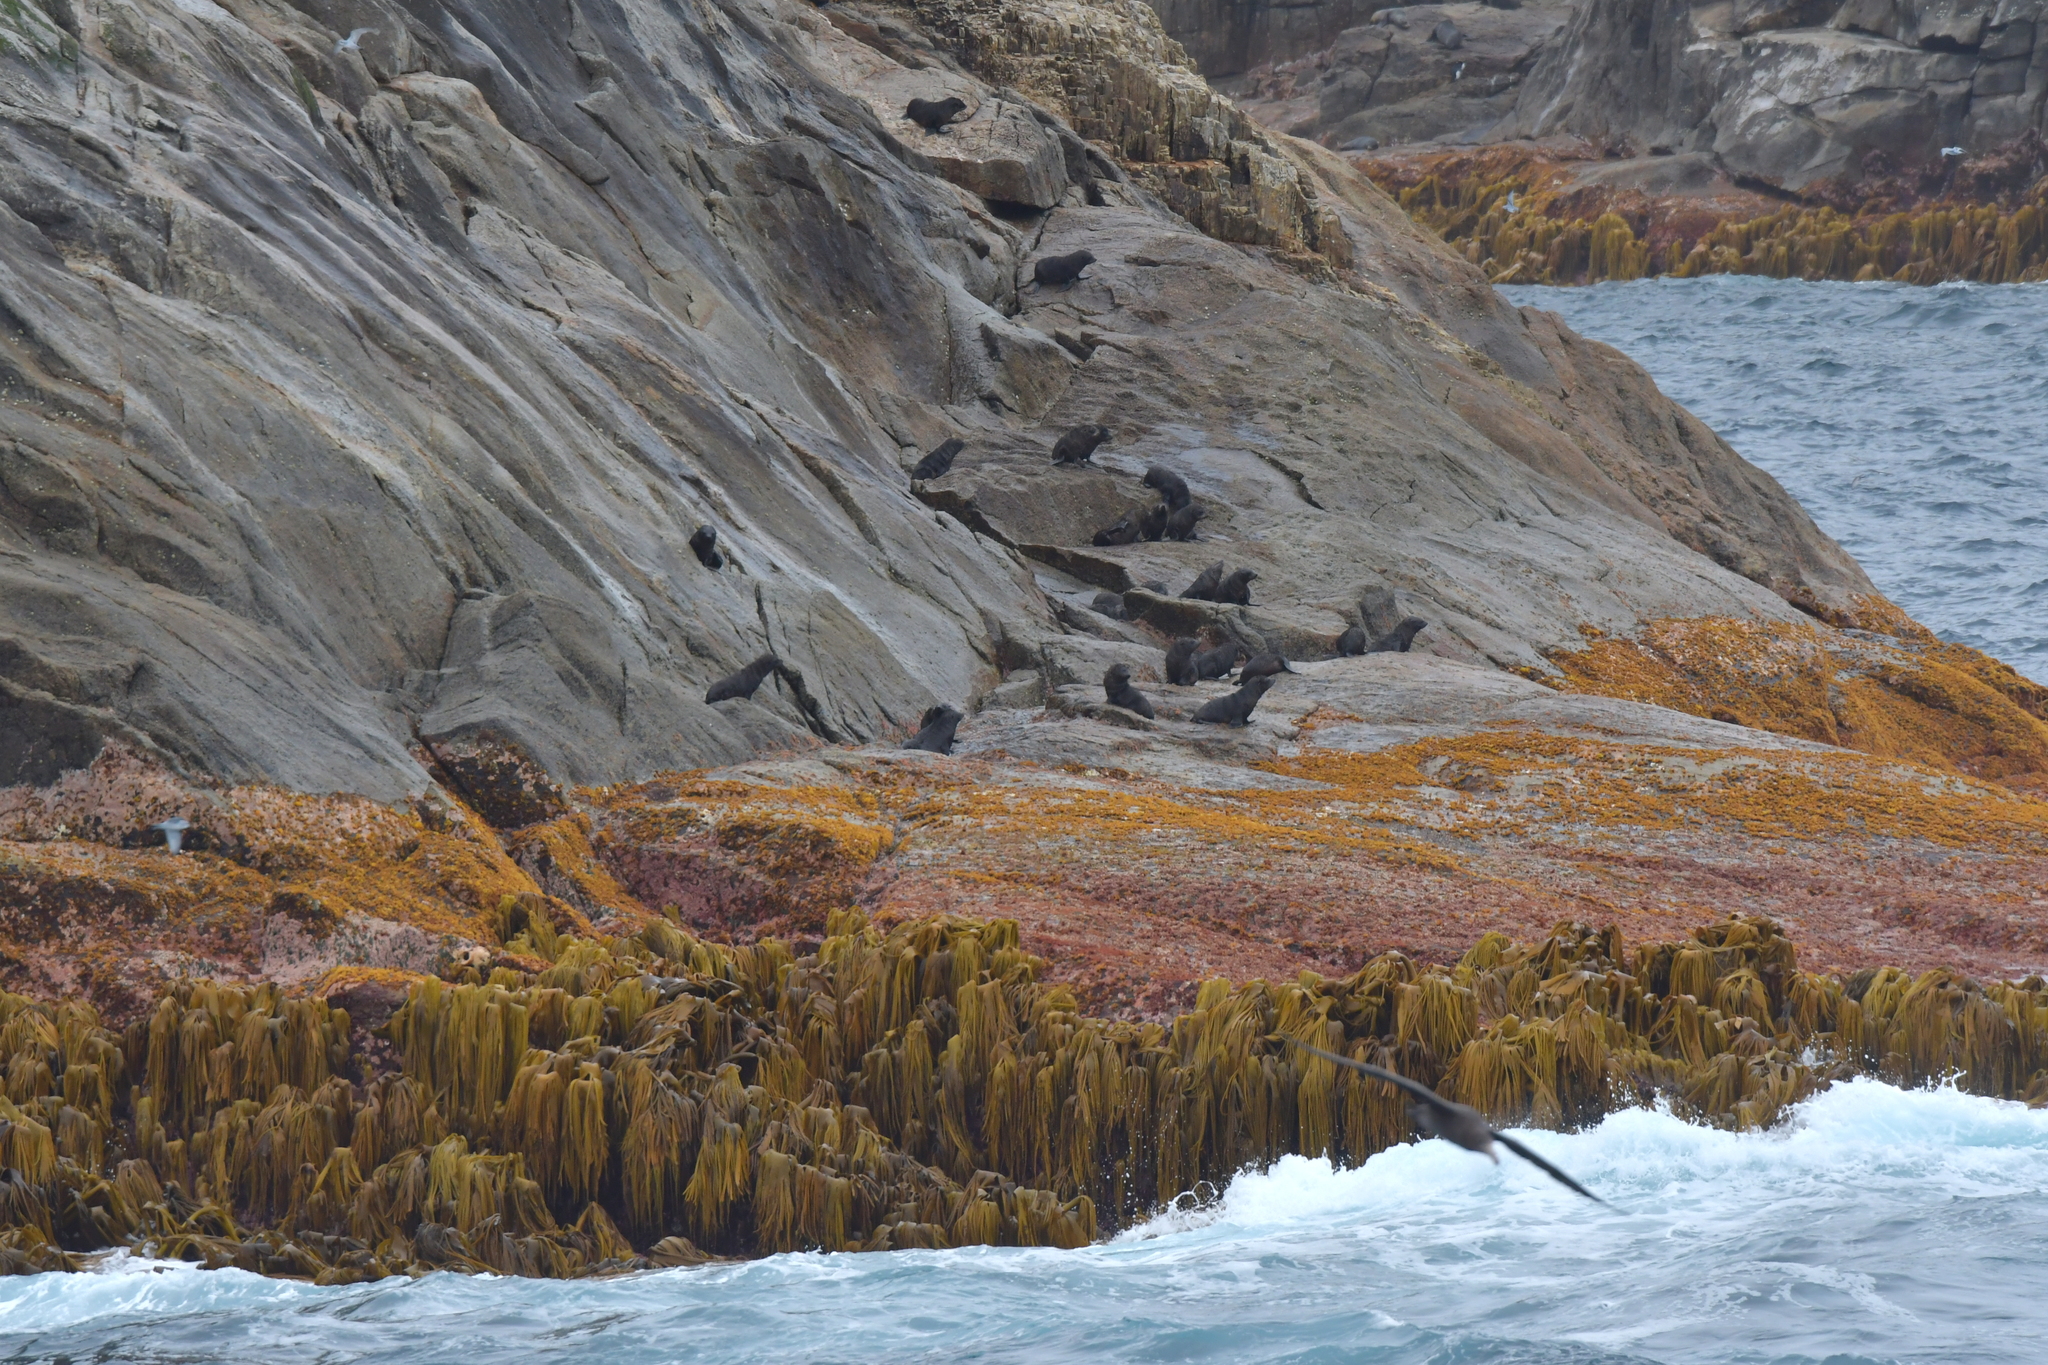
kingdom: Animalia
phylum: Chordata
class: Mammalia
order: Carnivora
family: Otariidae
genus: Arctocephalus
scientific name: Arctocephalus forsteri
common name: New zealand fur seal
